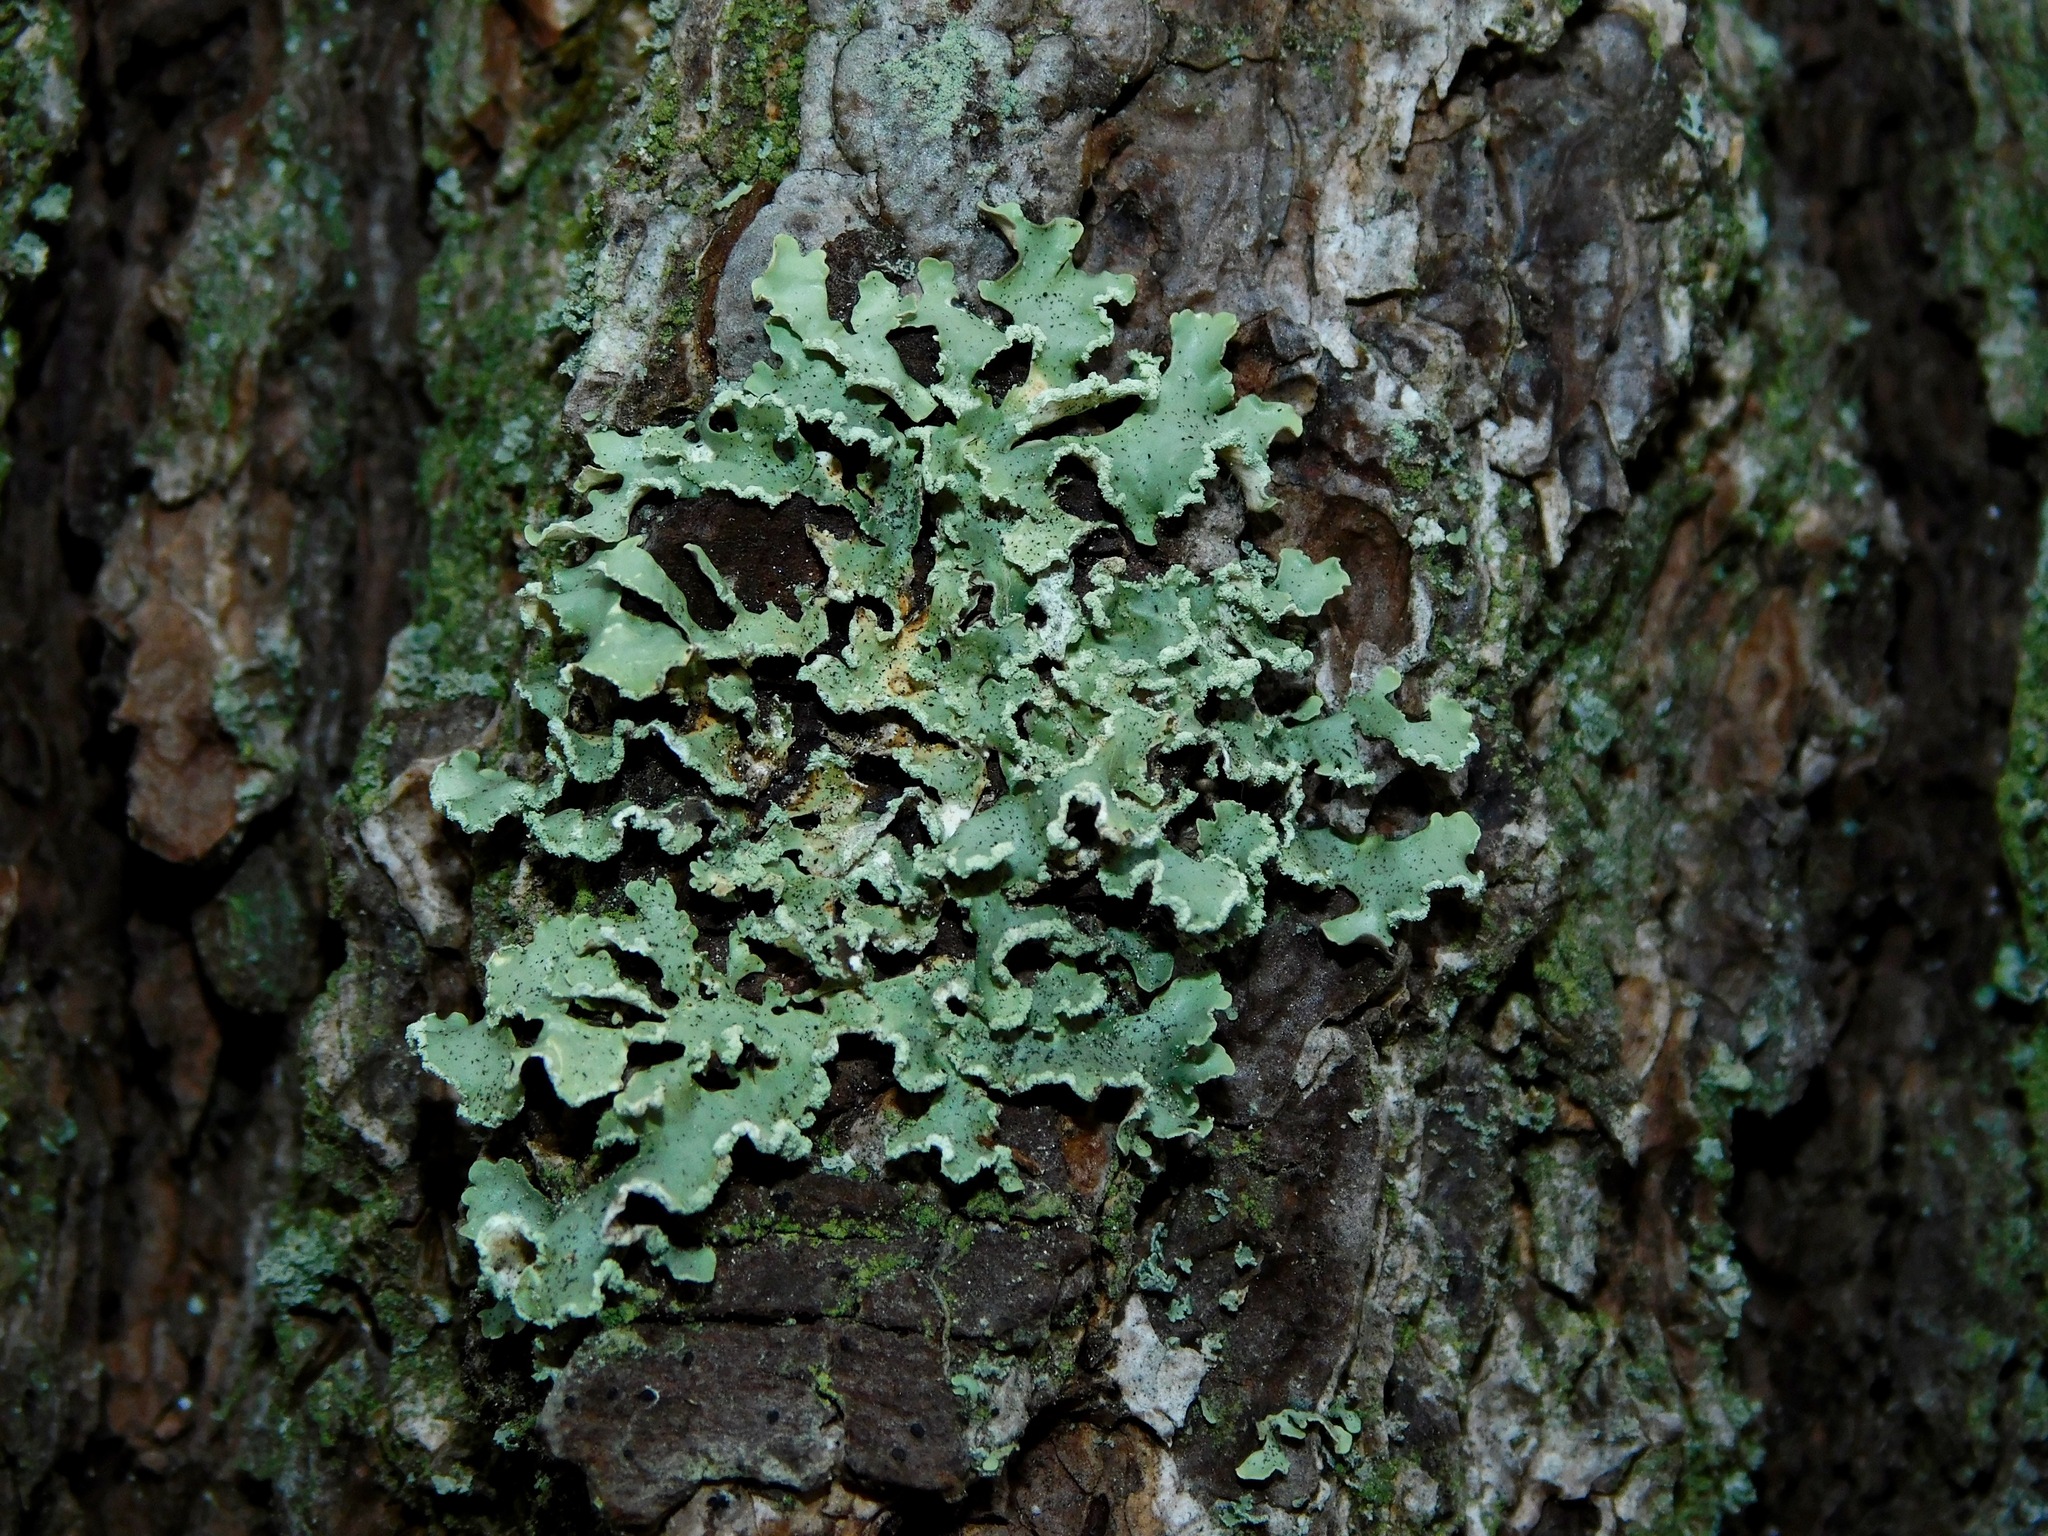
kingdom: Fungi
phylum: Ascomycota
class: Lecanoromycetes
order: Lecanorales
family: Parmeliaceae
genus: Usnocetraria
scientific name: Usnocetraria oakesiana
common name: Yellow ribbon lichen
